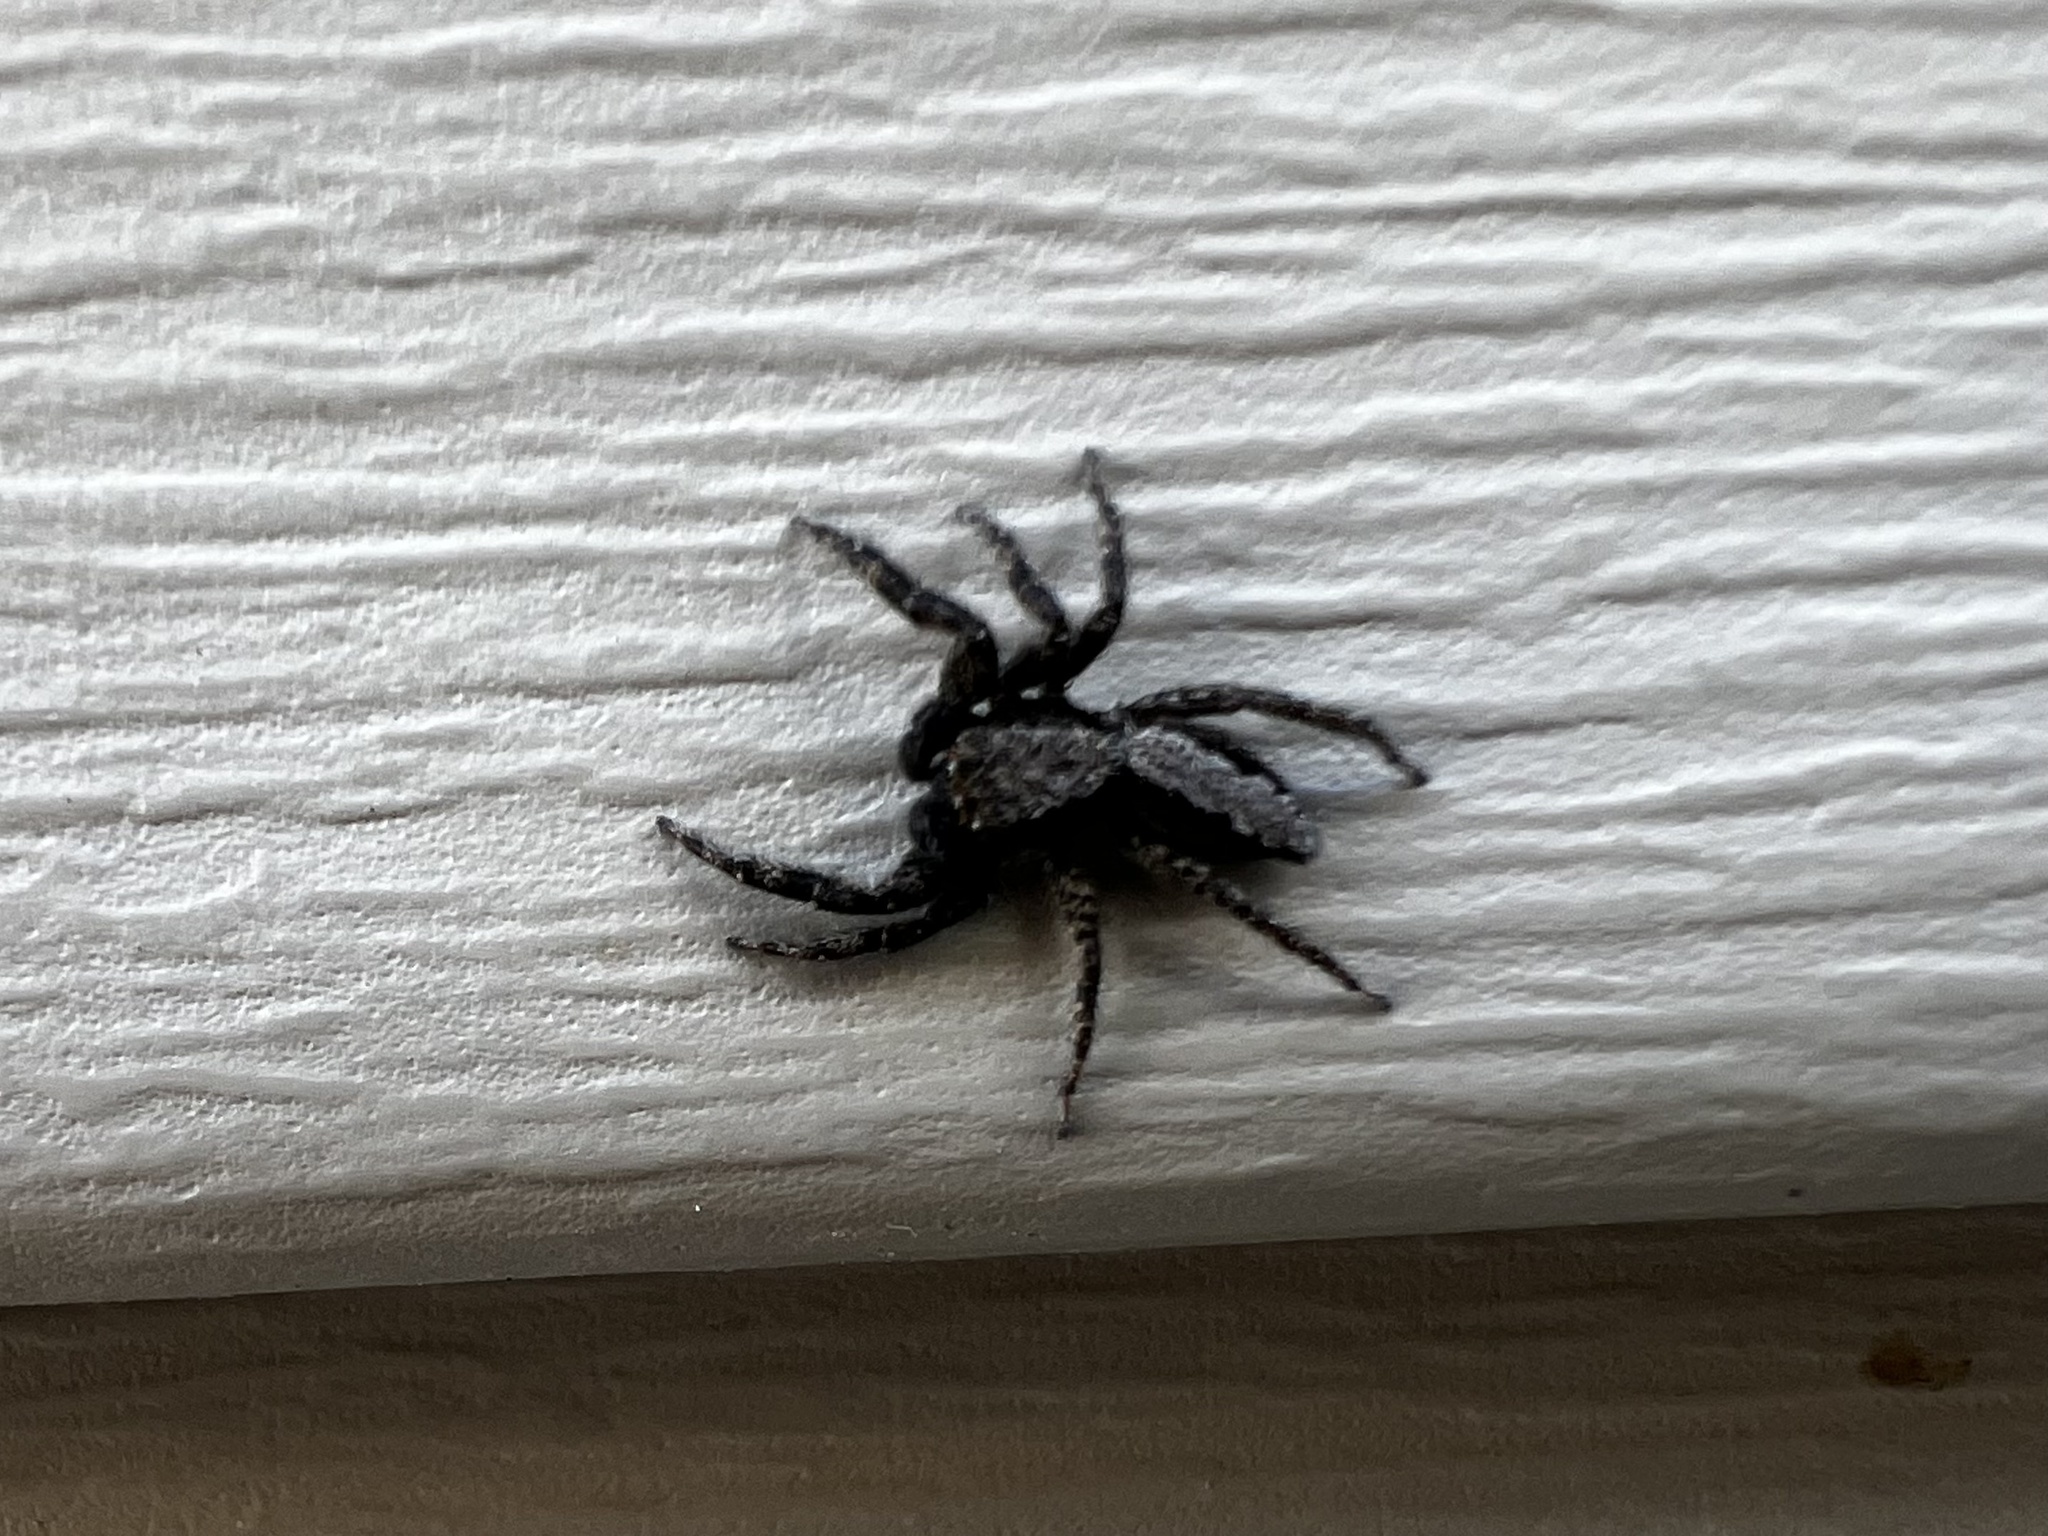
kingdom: Animalia
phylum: Arthropoda
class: Arachnida
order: Araneae
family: Salticidae
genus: Platycryptus
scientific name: Platycryptus californicus
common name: Jumping spiders
